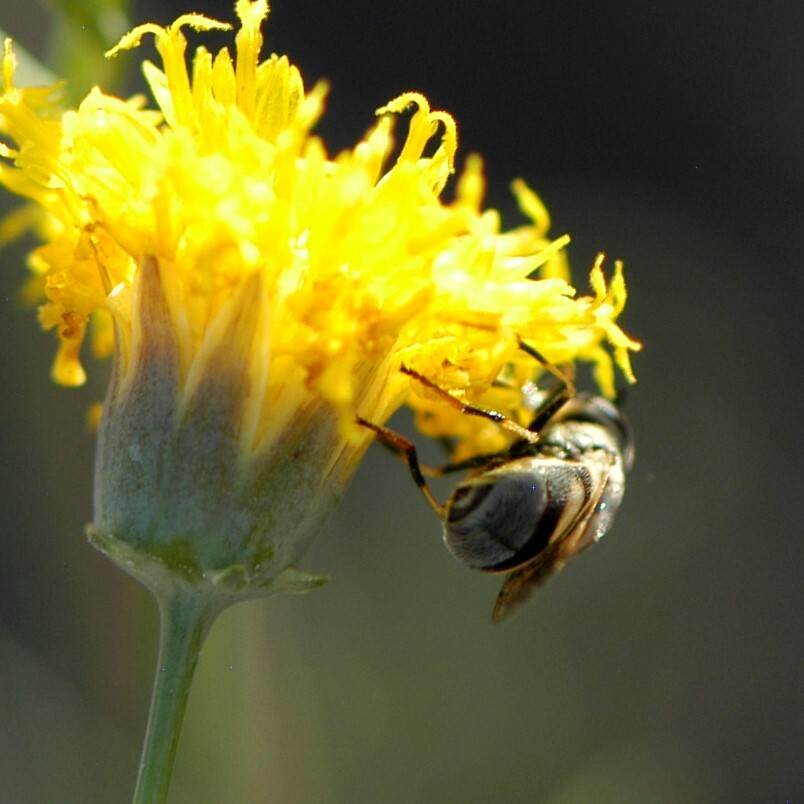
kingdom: Animalia
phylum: Arthropoda
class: Insecta
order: Diptera
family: Syrphidae
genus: Copestylum
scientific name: Copestylum
